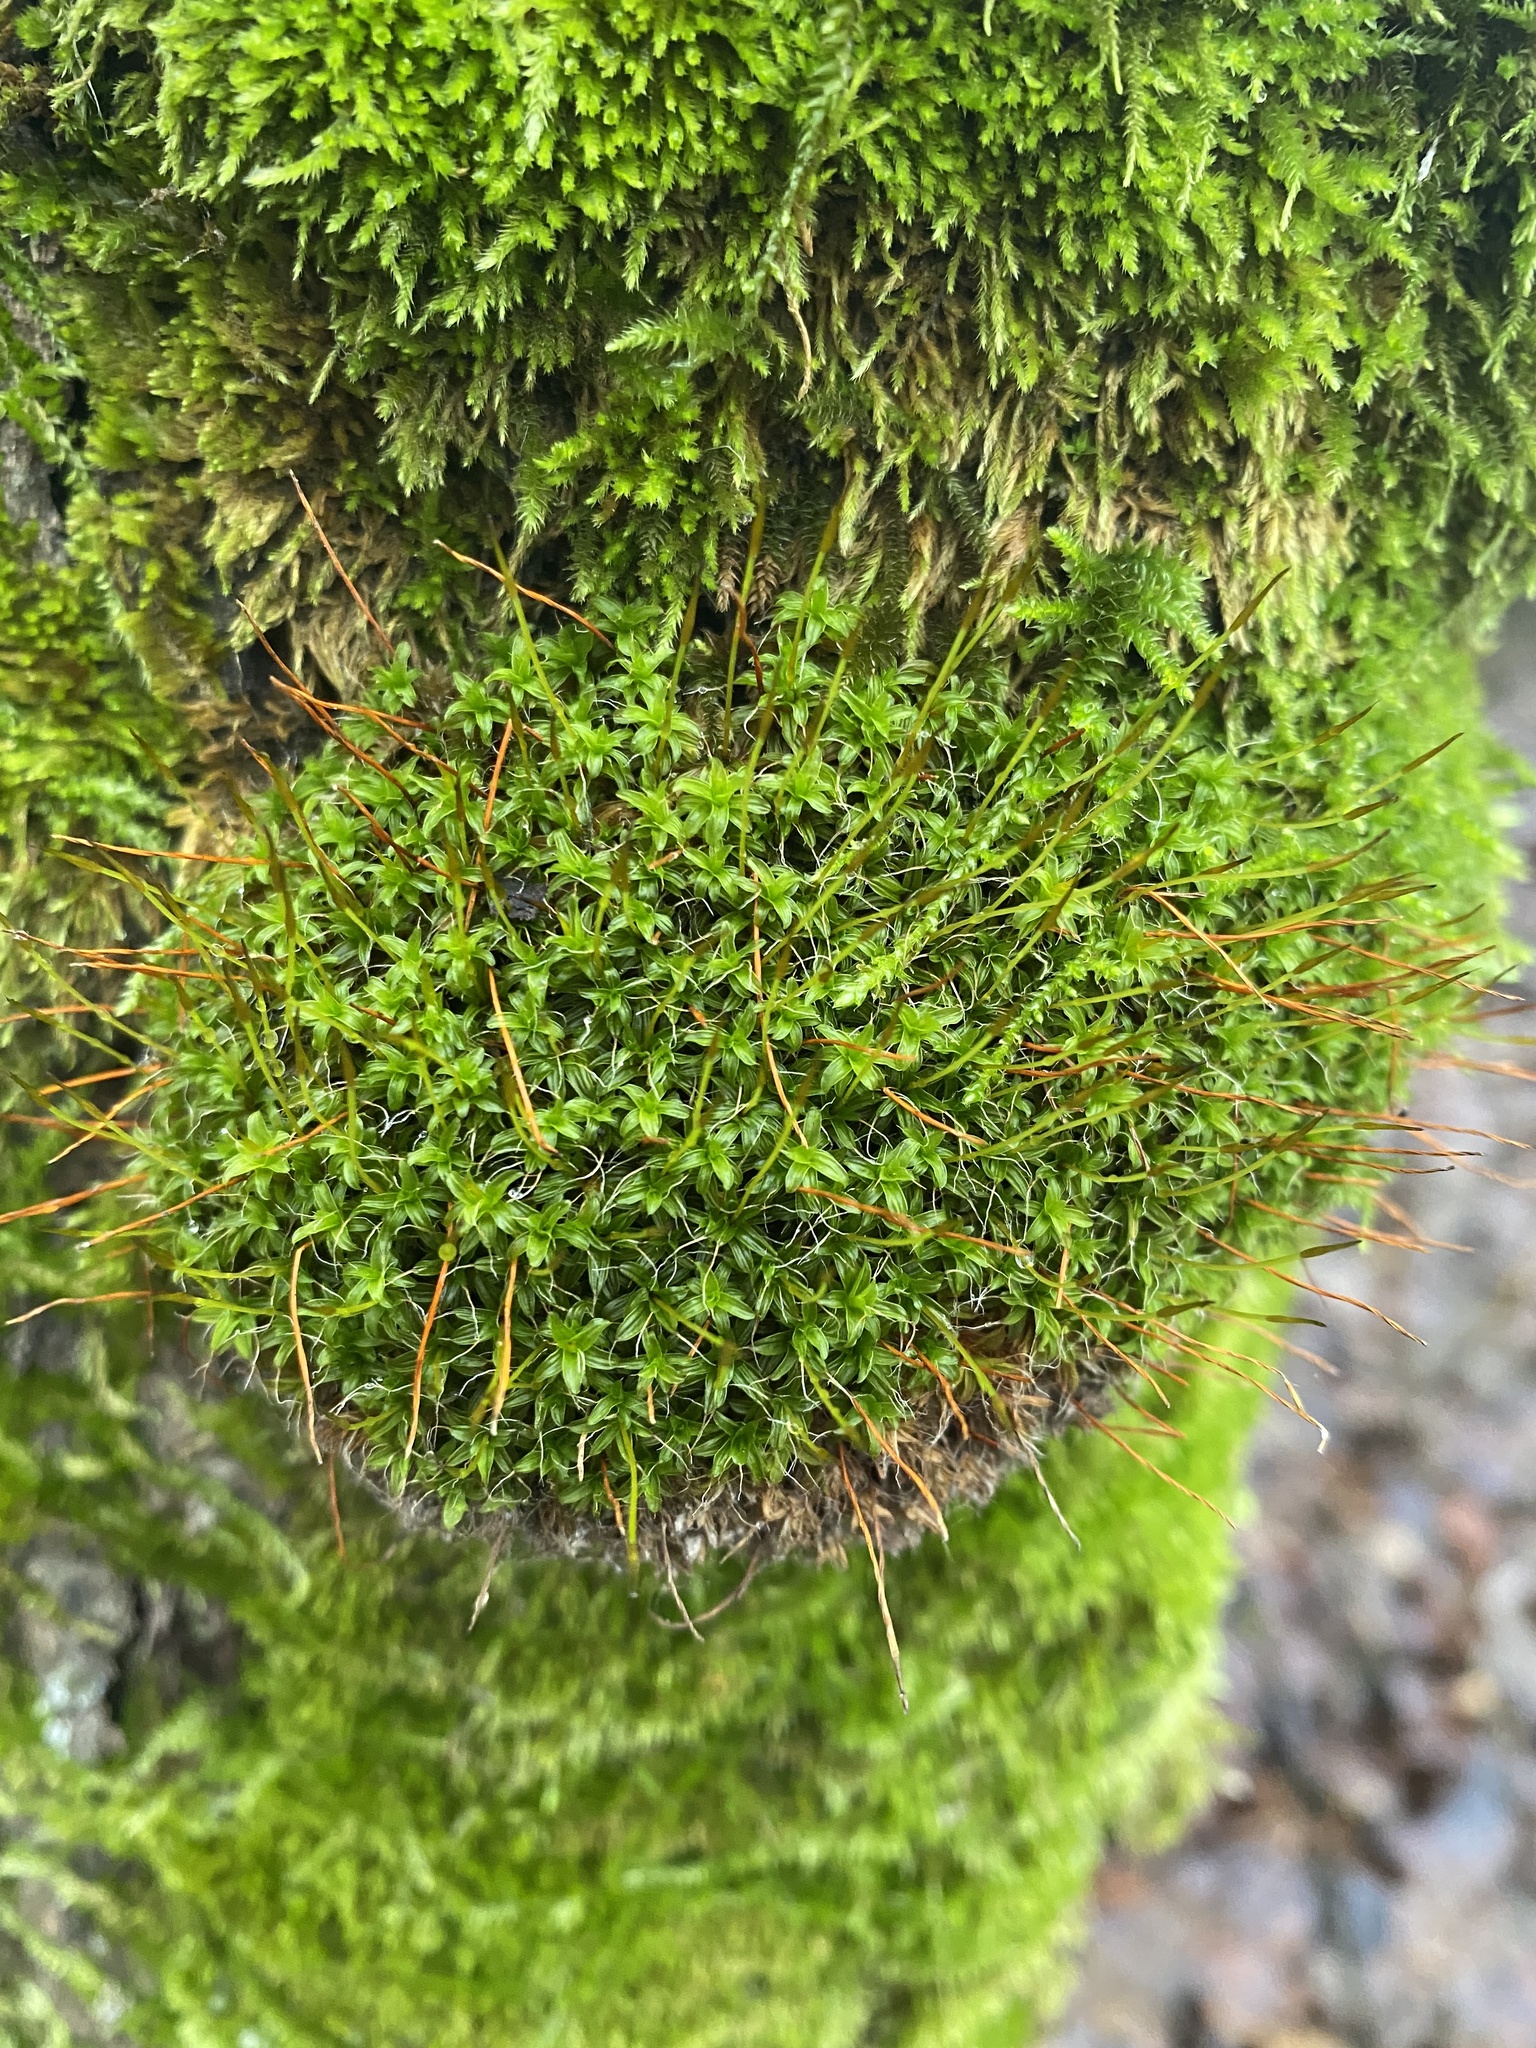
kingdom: Plantae
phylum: Bryophyta
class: Bryopsida
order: Pottiales
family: Pottiaceae
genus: Syntrichia
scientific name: Syntrichia ruralis
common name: Sidewalk screw moss
